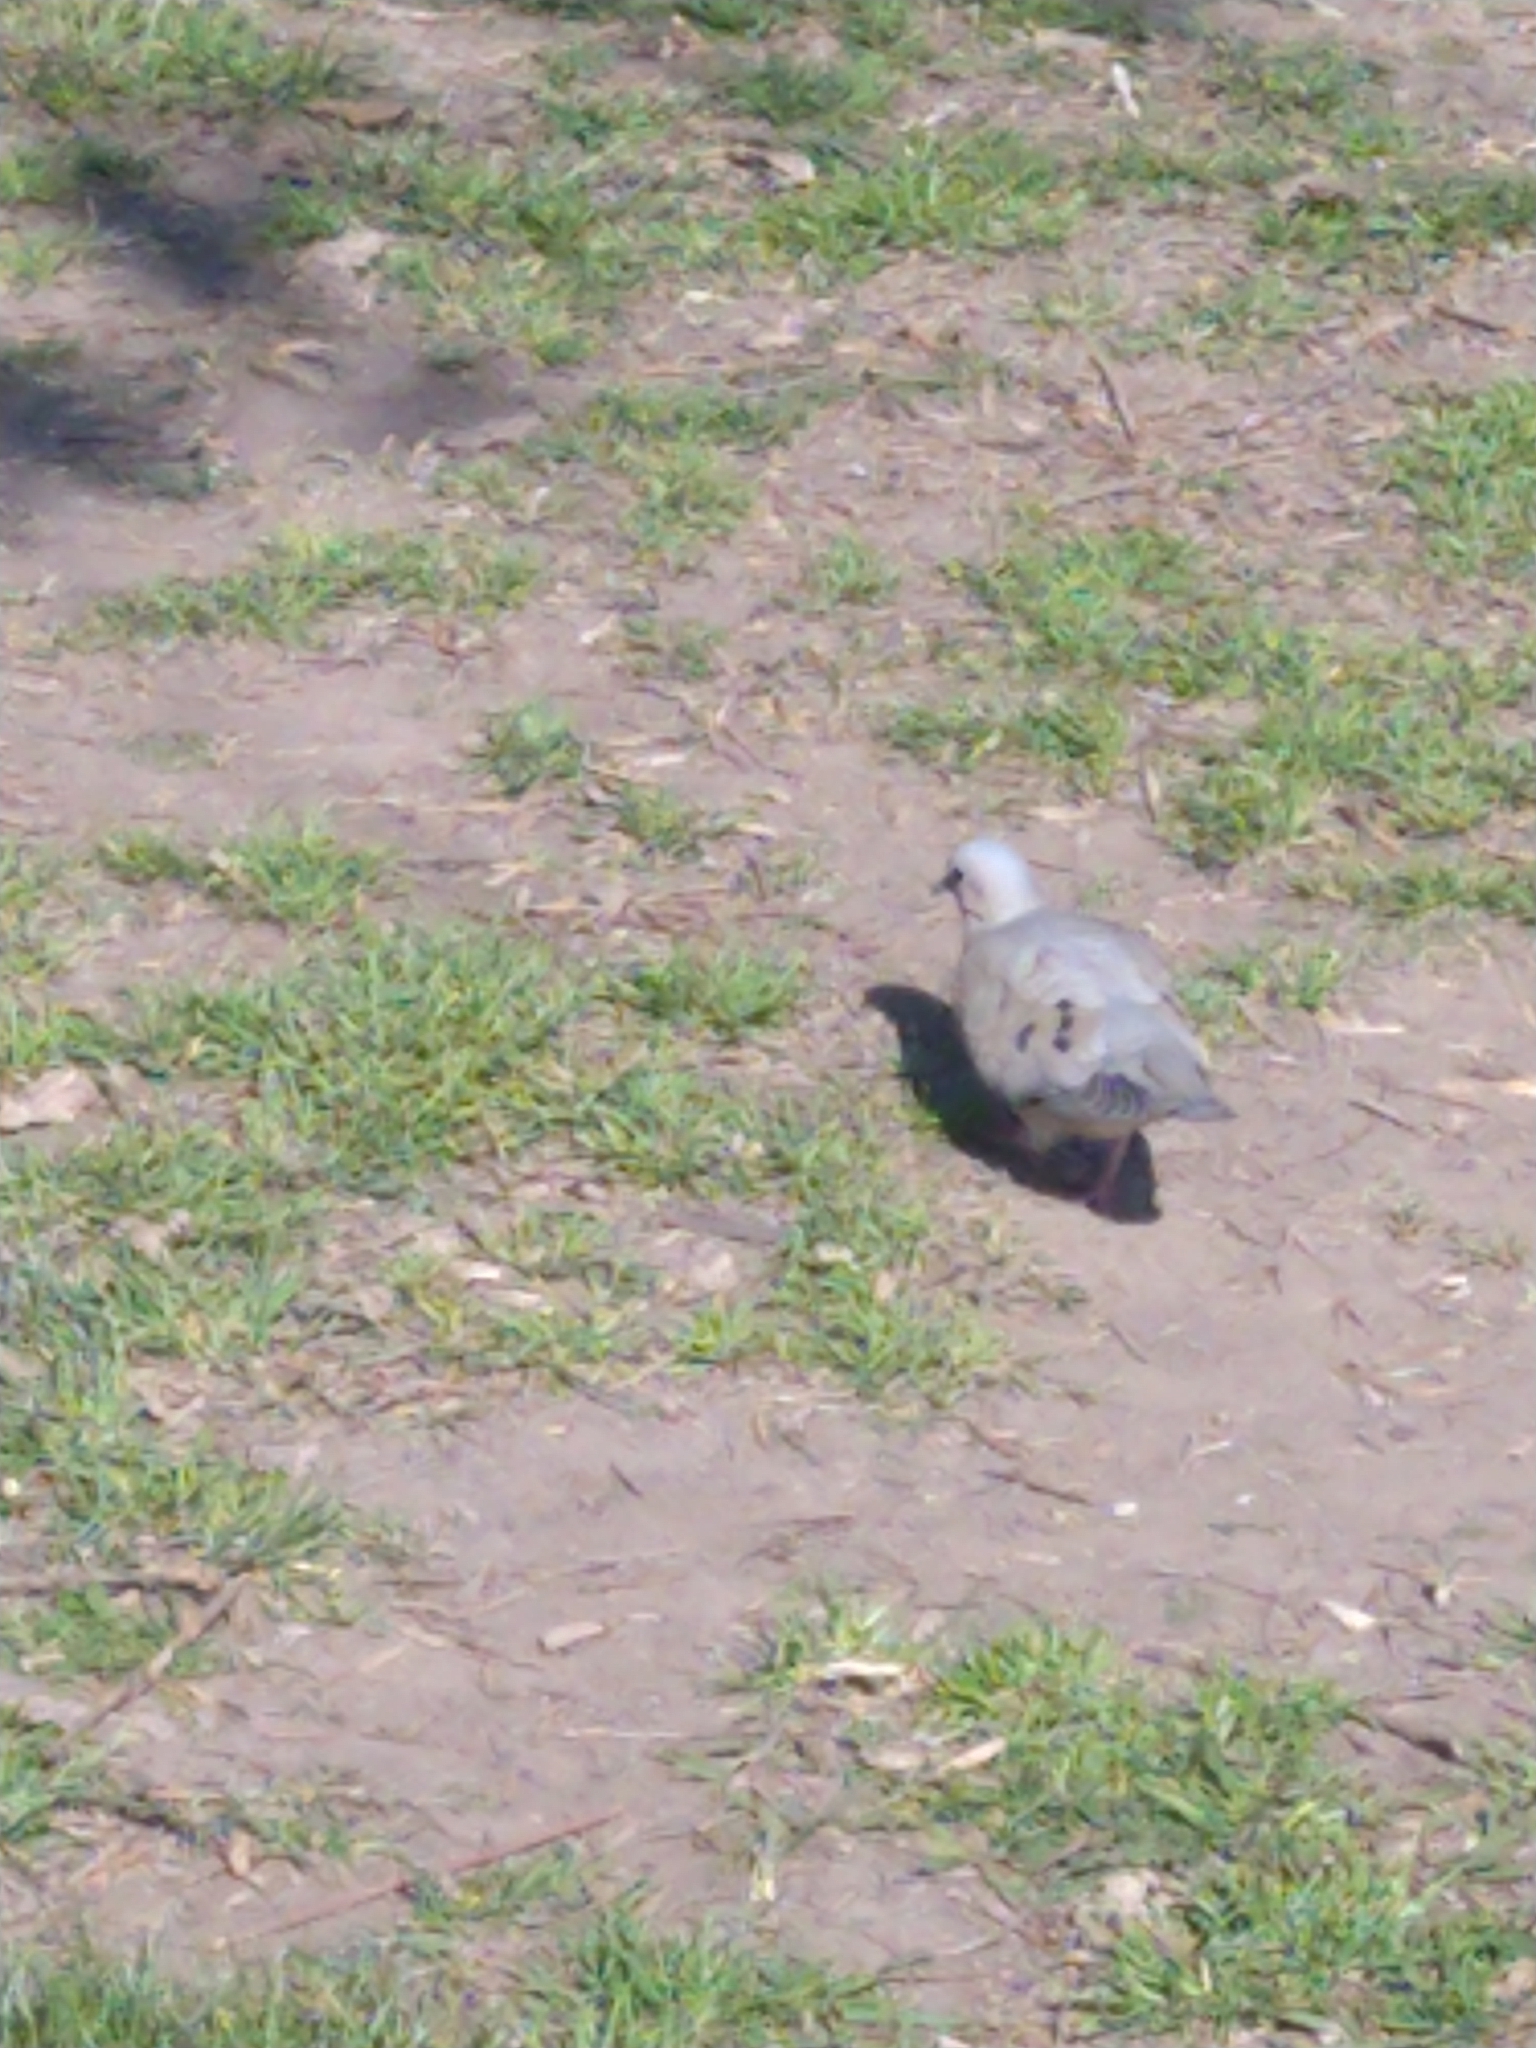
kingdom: Animalia
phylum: Chordata
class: Aves
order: Columbiformes
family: Columbidae
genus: Zenaida
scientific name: Zenaida auriculata
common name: Eared dove
